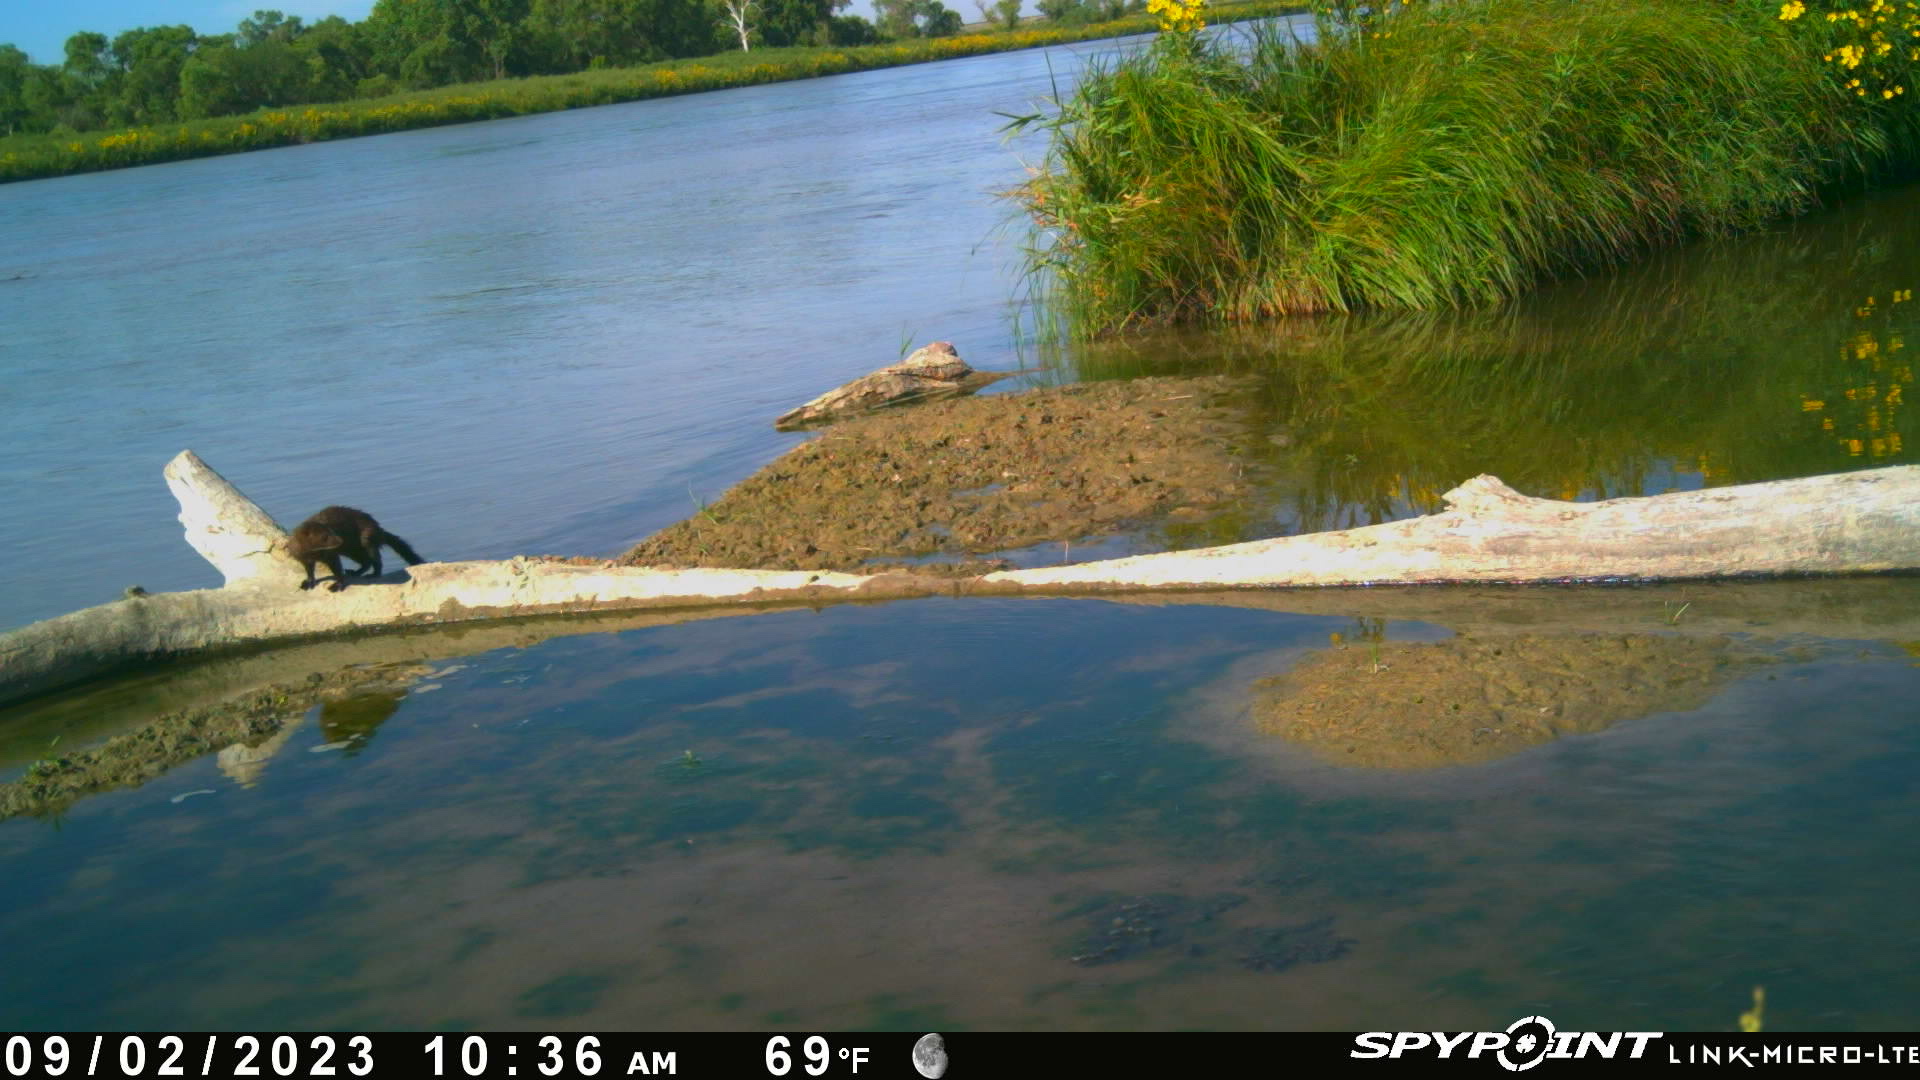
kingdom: Animalia
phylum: Chordata
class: Mammalia
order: Carnivora
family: Mustelidae
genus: Mustela
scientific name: Mustela
